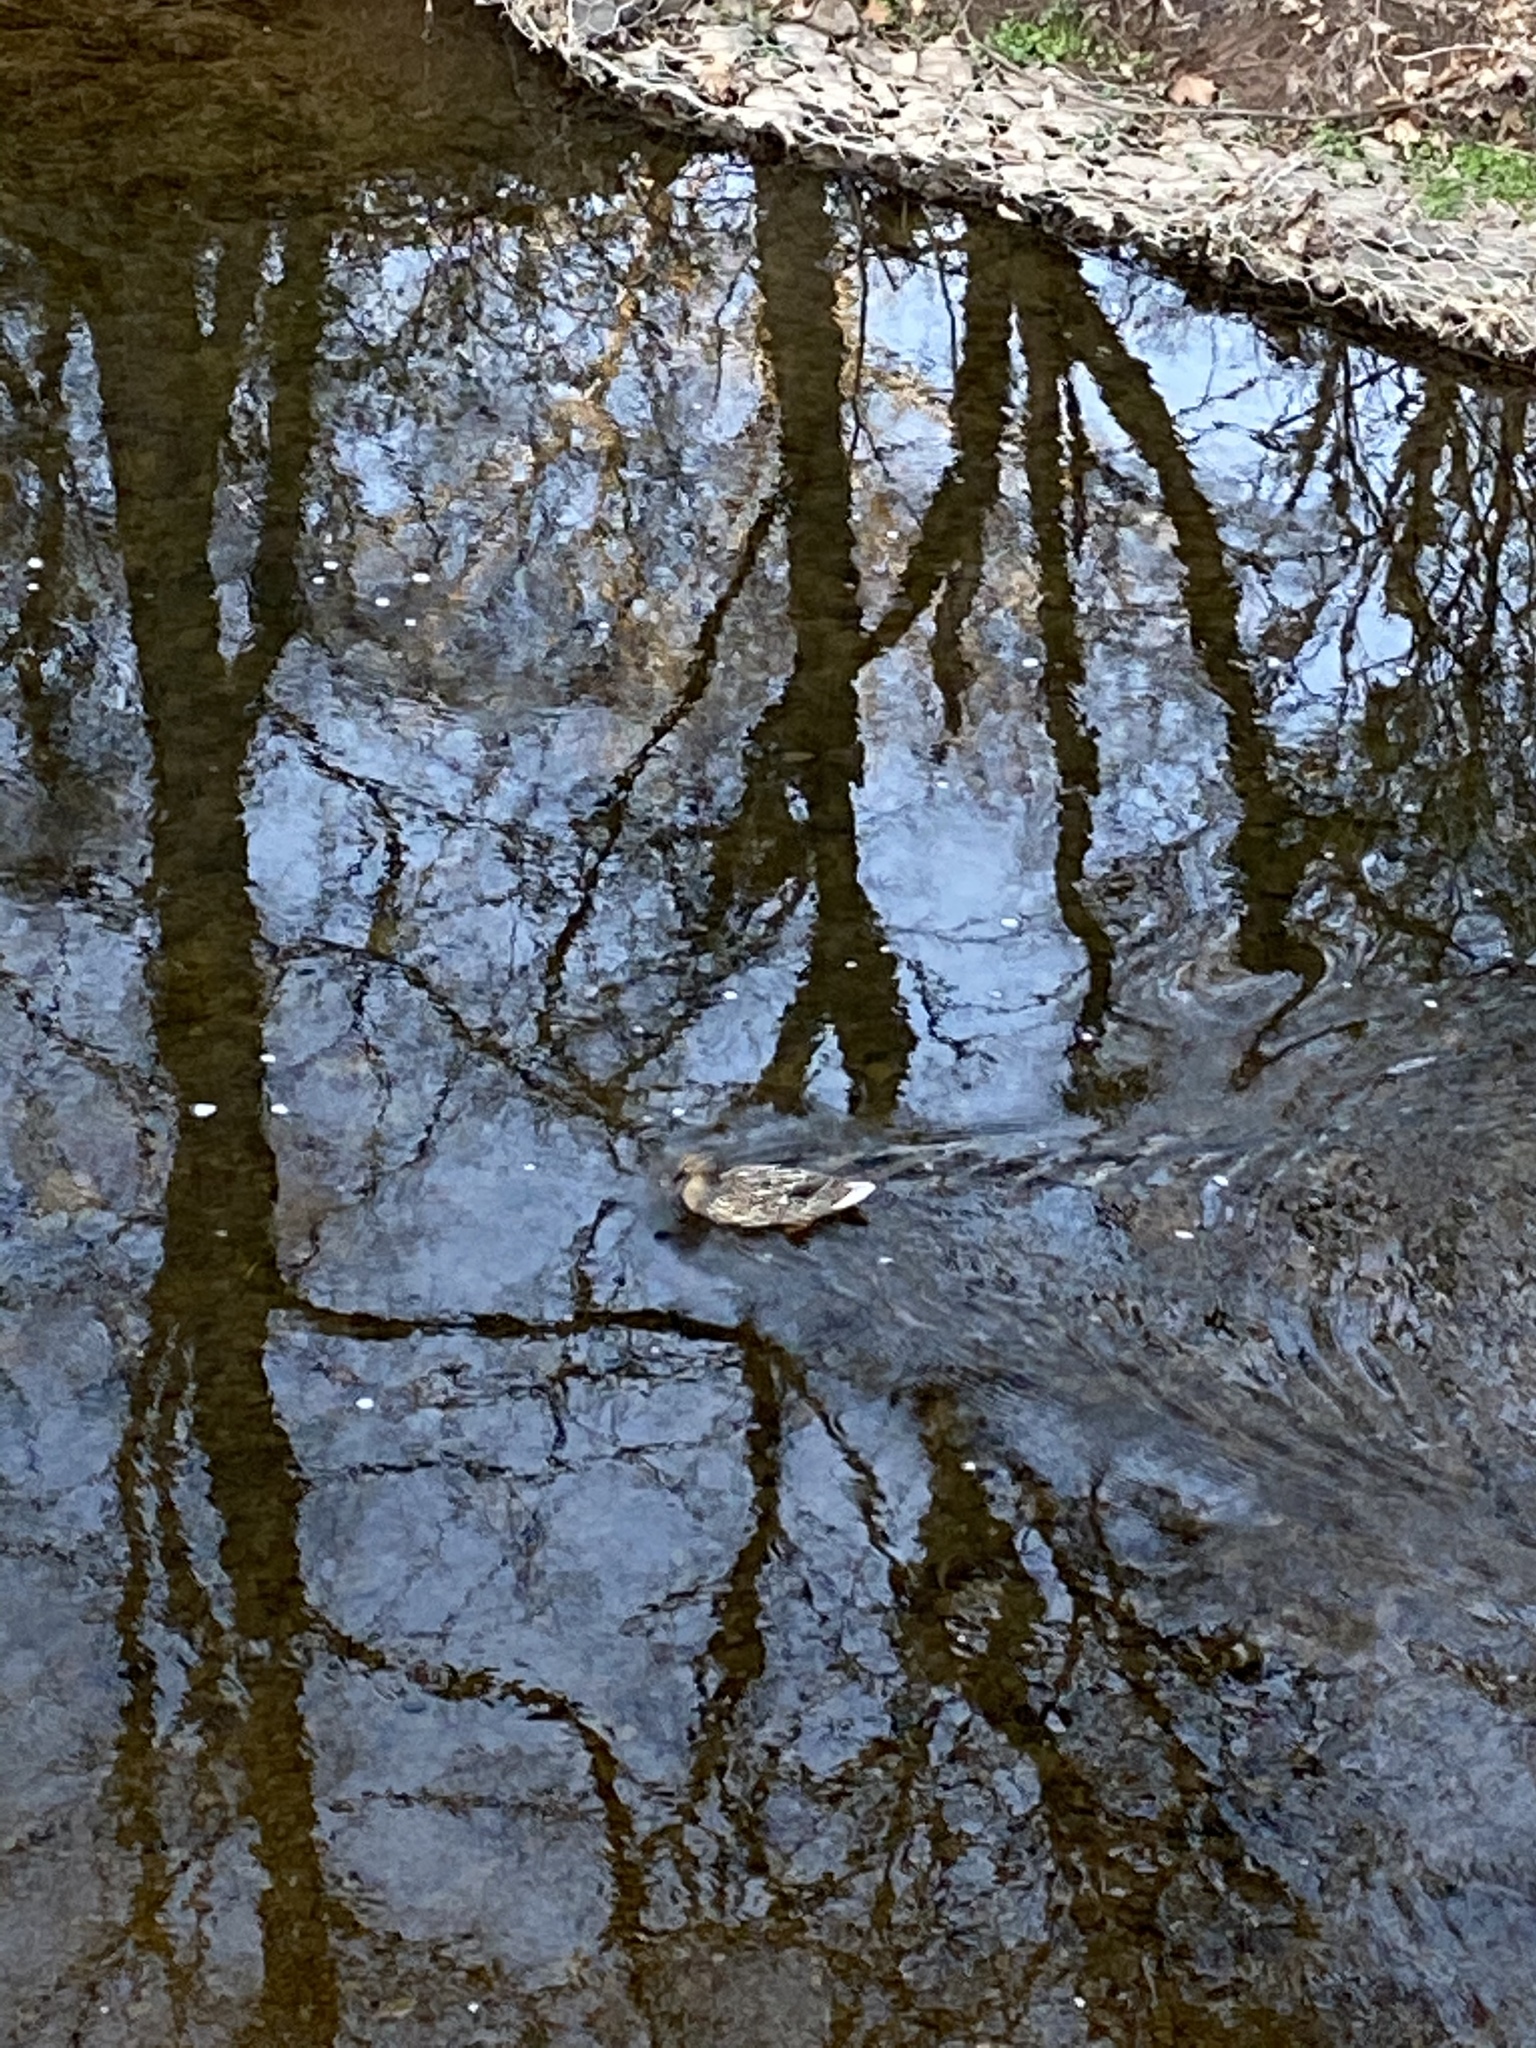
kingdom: Animalia
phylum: Chordata
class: Aves
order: Anseriformes
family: Anatidae
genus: Anas
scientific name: Anas platyrhynchos
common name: Mallard
